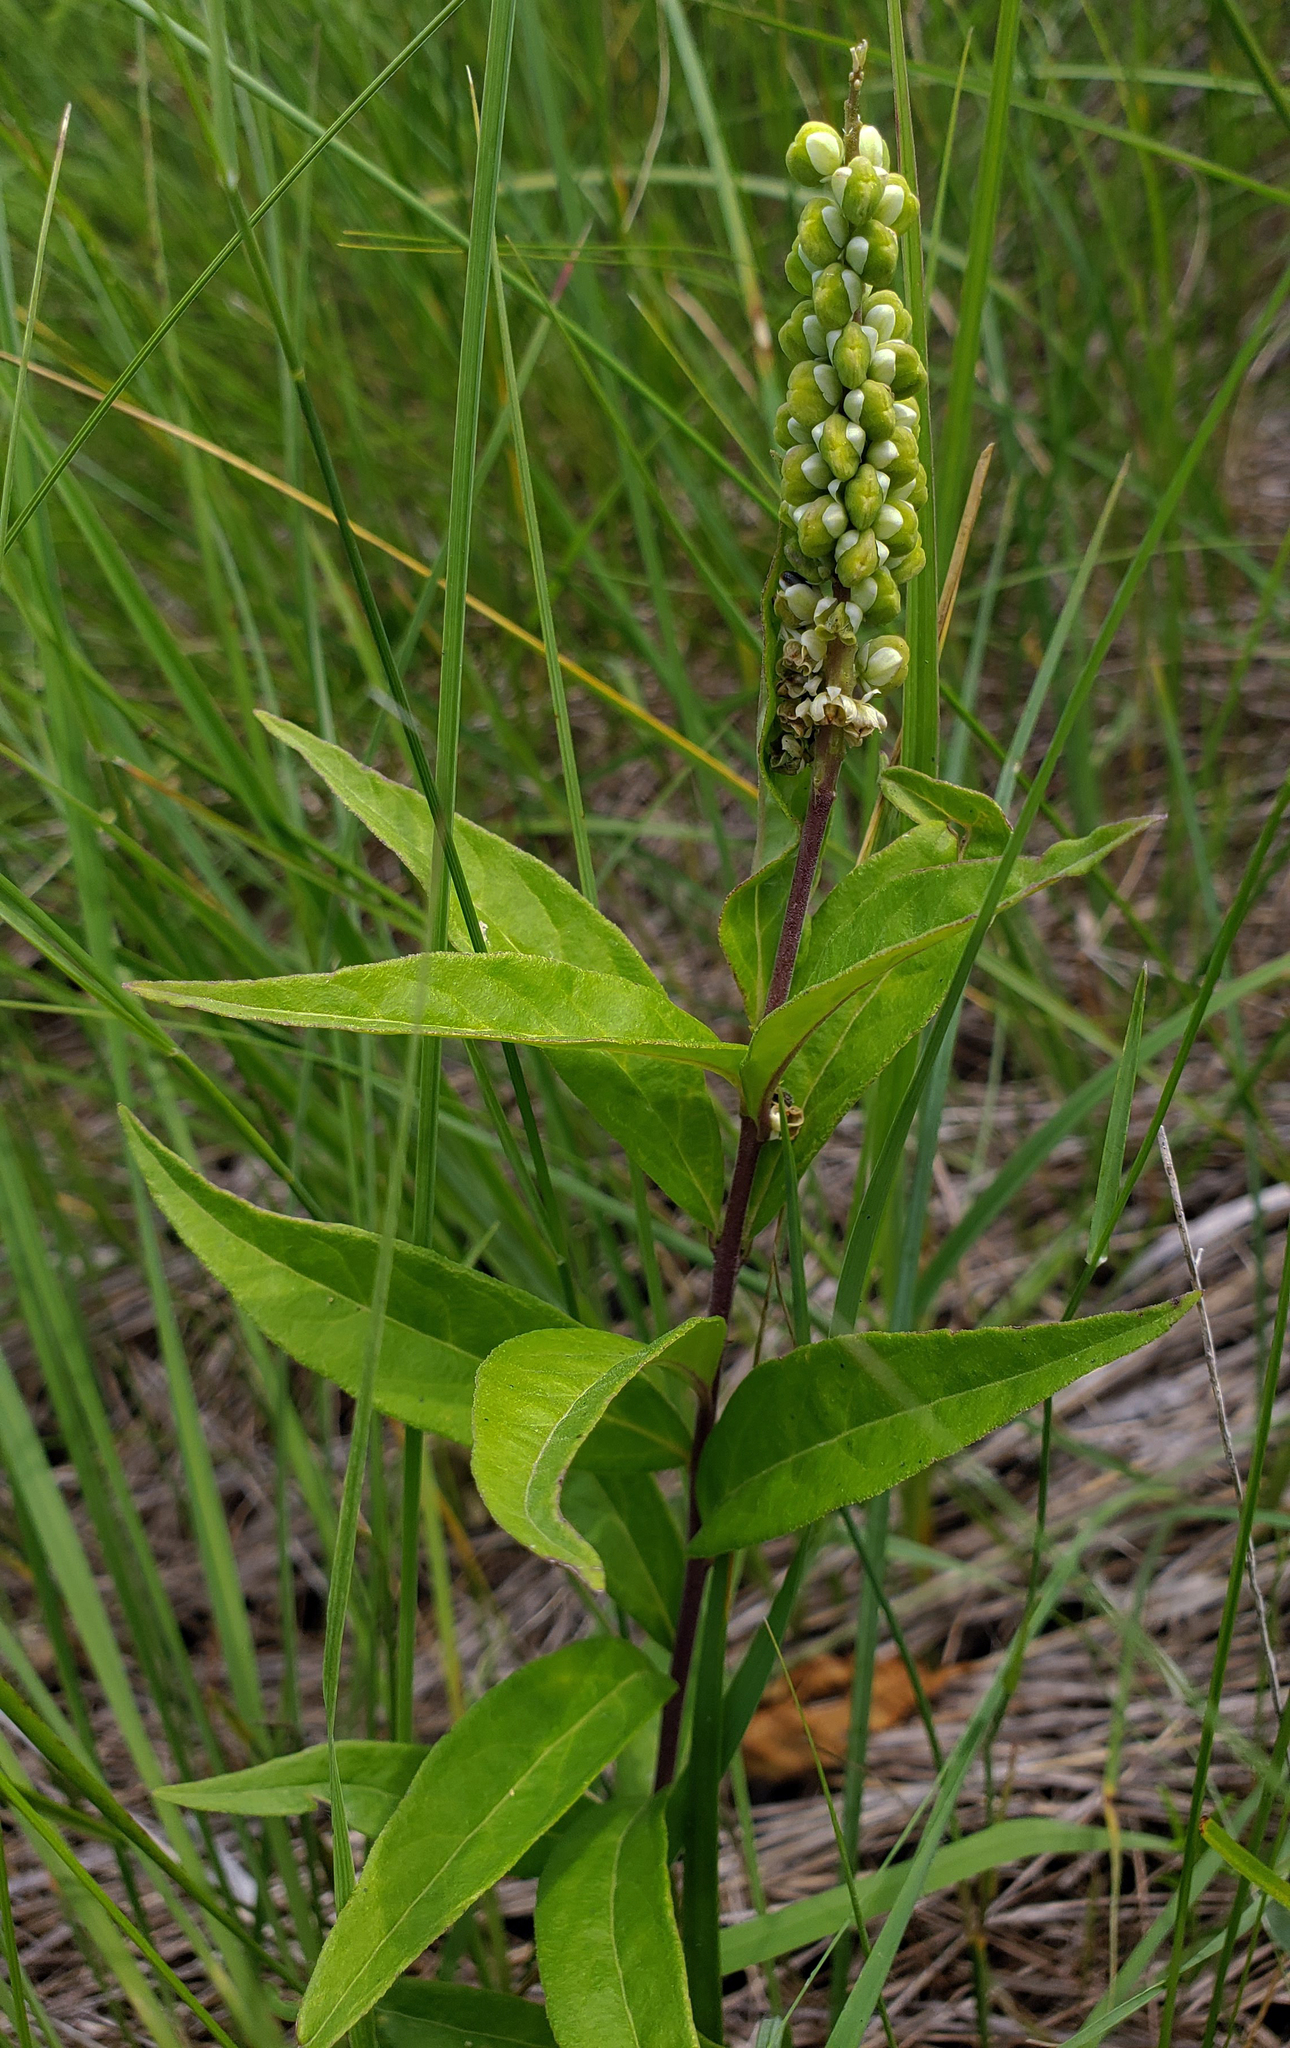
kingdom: Plantae
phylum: Tracheophyta
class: Magnoliopsida
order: Fabales
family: Polygalaceae
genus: Polygala
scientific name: Polygala senega
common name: Seneca snakeroot
